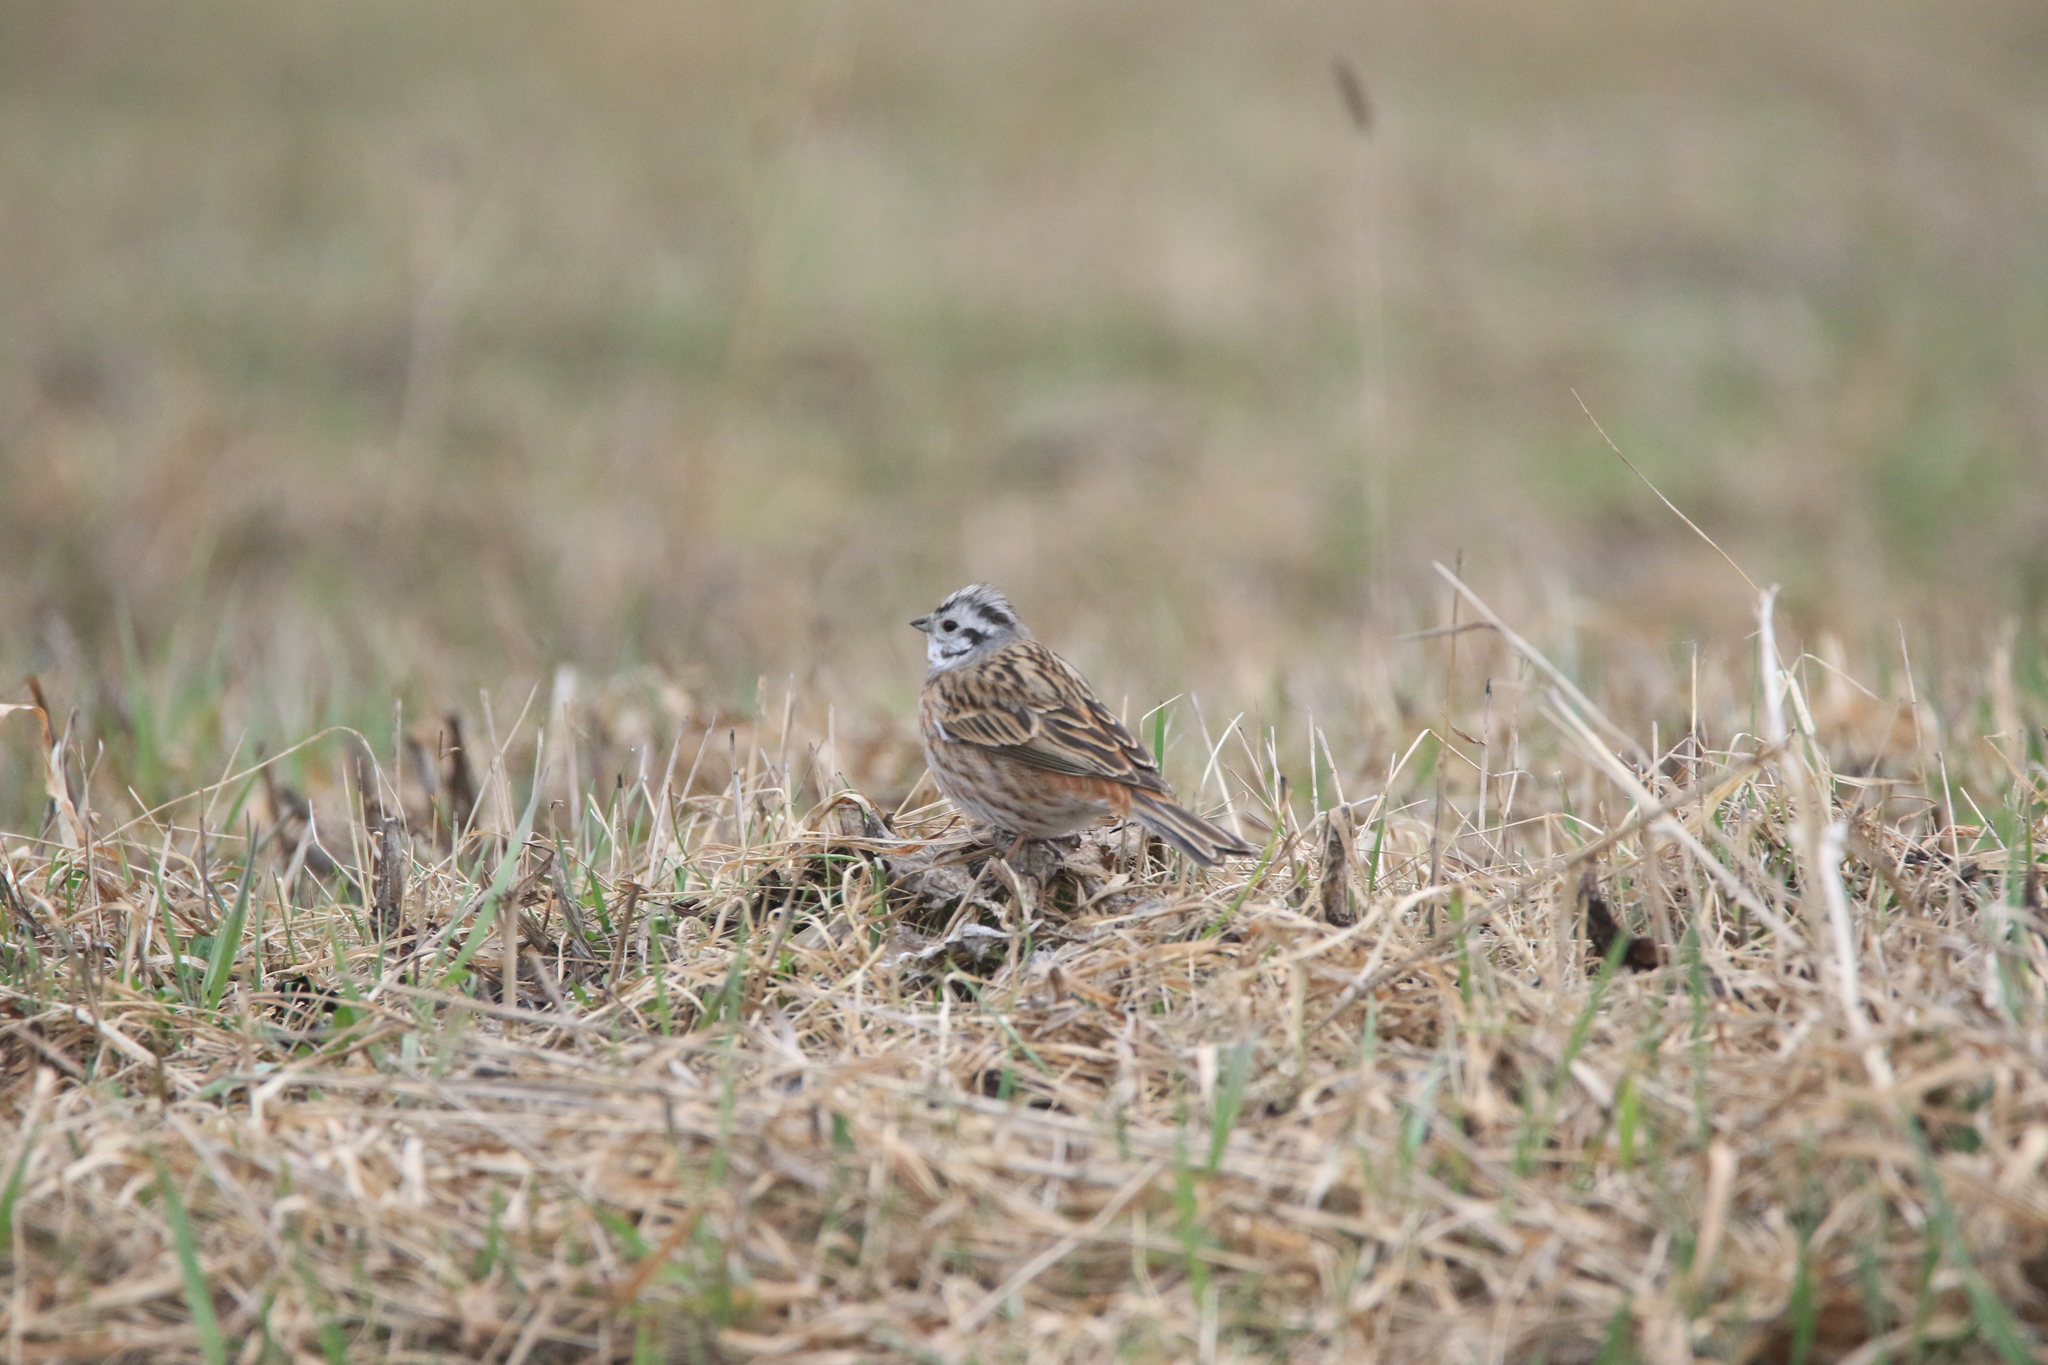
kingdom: Animalia
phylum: Chordata
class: Aves
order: Passeriformes
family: Emberizidae
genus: Emberiza
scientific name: Emberiza
